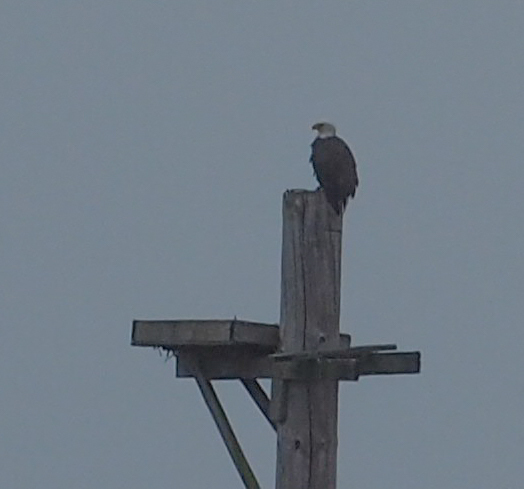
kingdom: Animalia
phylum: Chordata
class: Aves
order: Accipitriformes
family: Accipitridae
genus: Haliaeetus
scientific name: Haliaeetus leucocephalus
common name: Bald eagle
